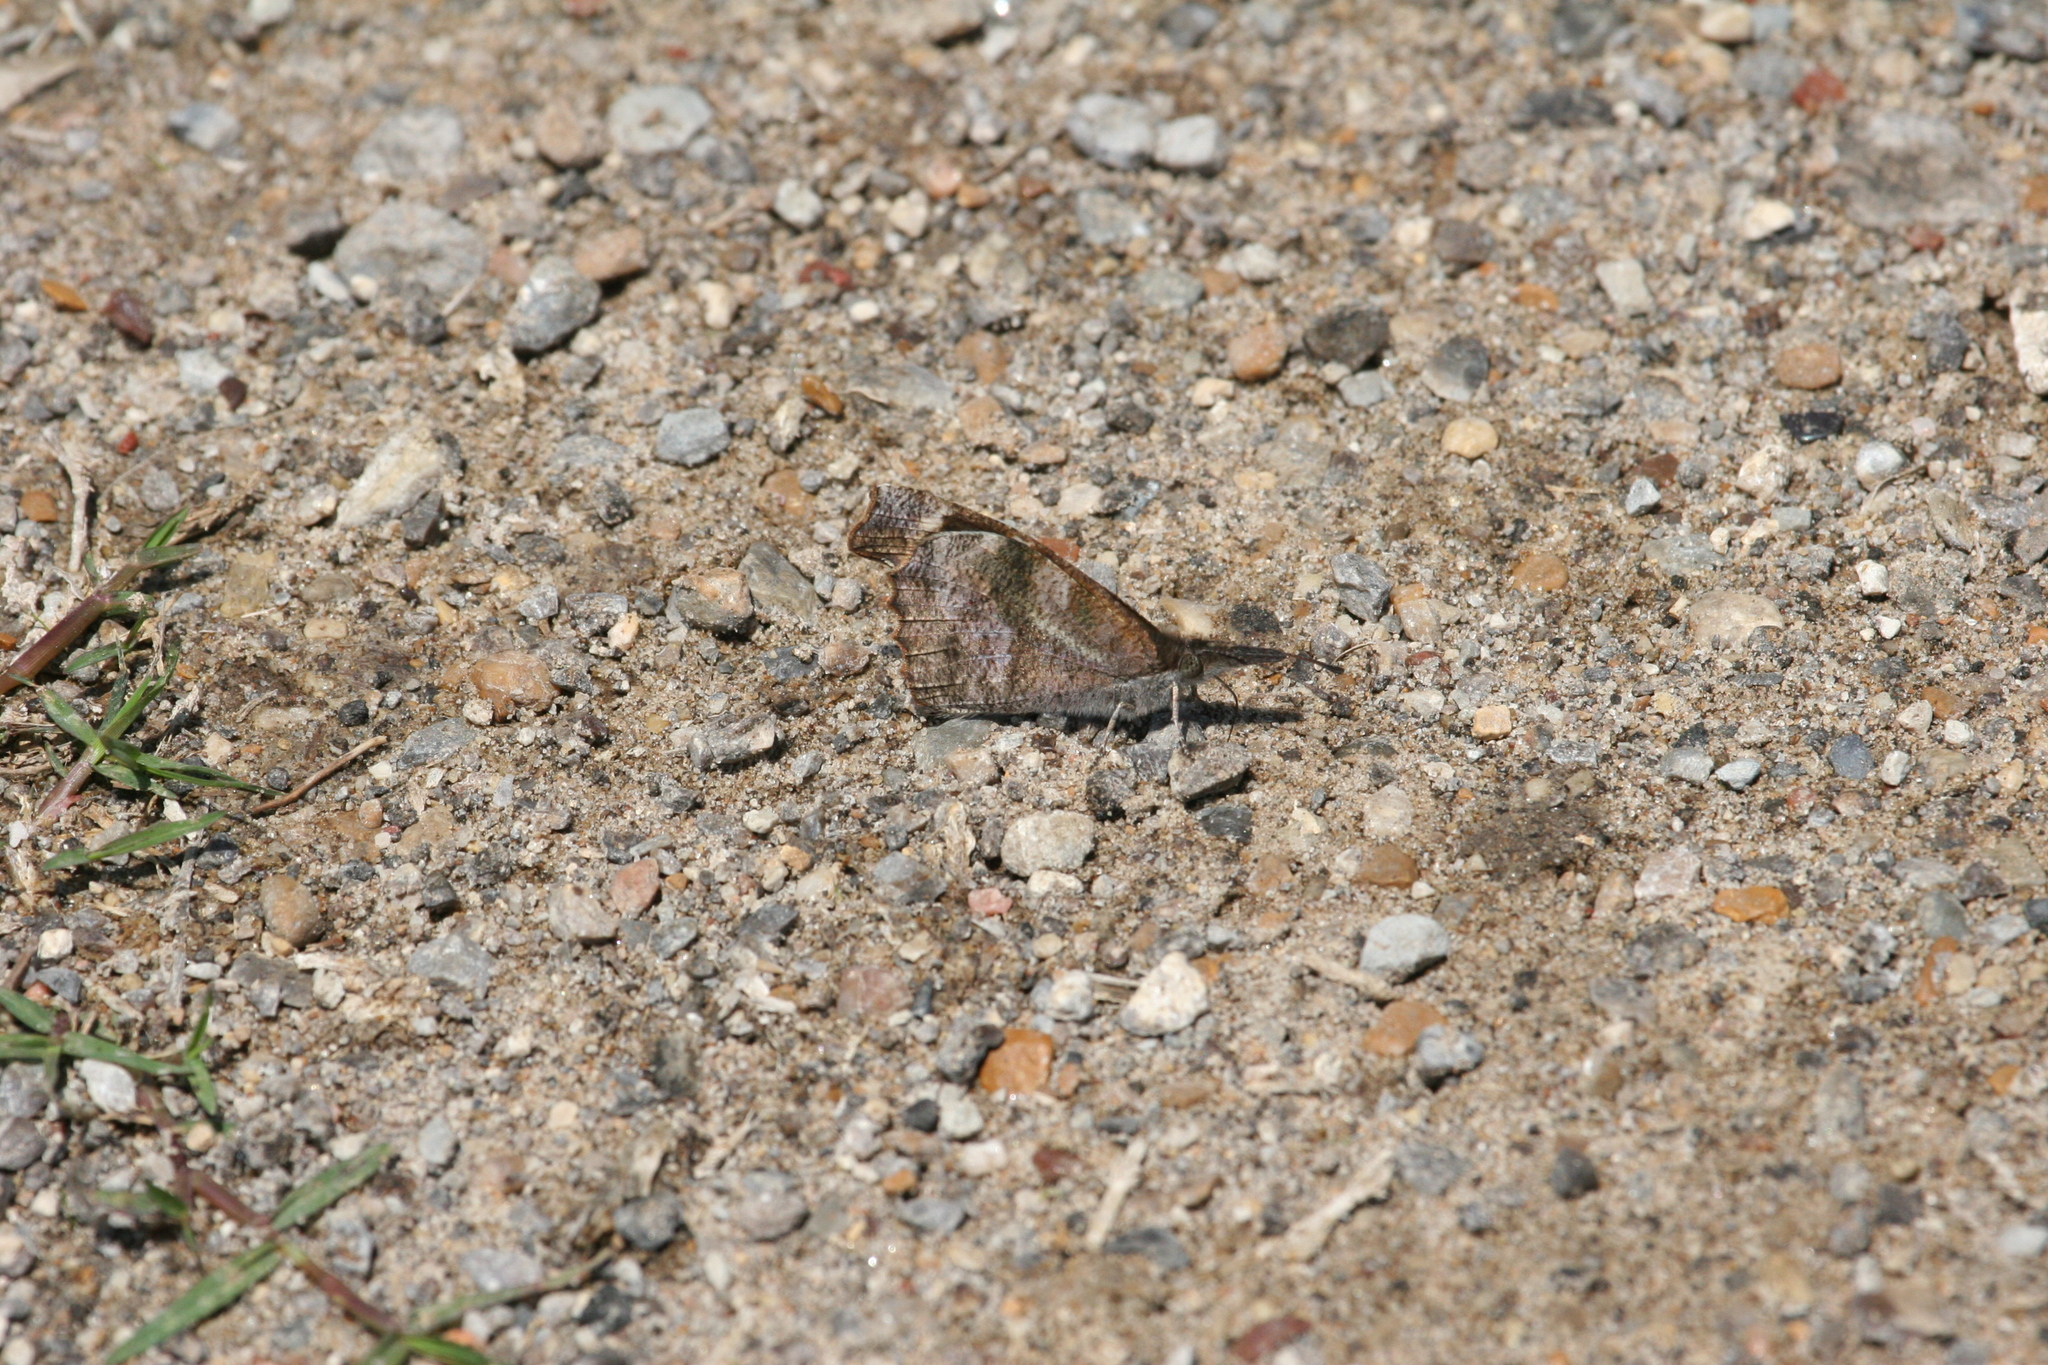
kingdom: Animalia
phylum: Arthropoda
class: Insecta
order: Lepidoptera
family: Nymphalidae
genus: Libytheana
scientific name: Libytheana carinenta
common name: American snout
